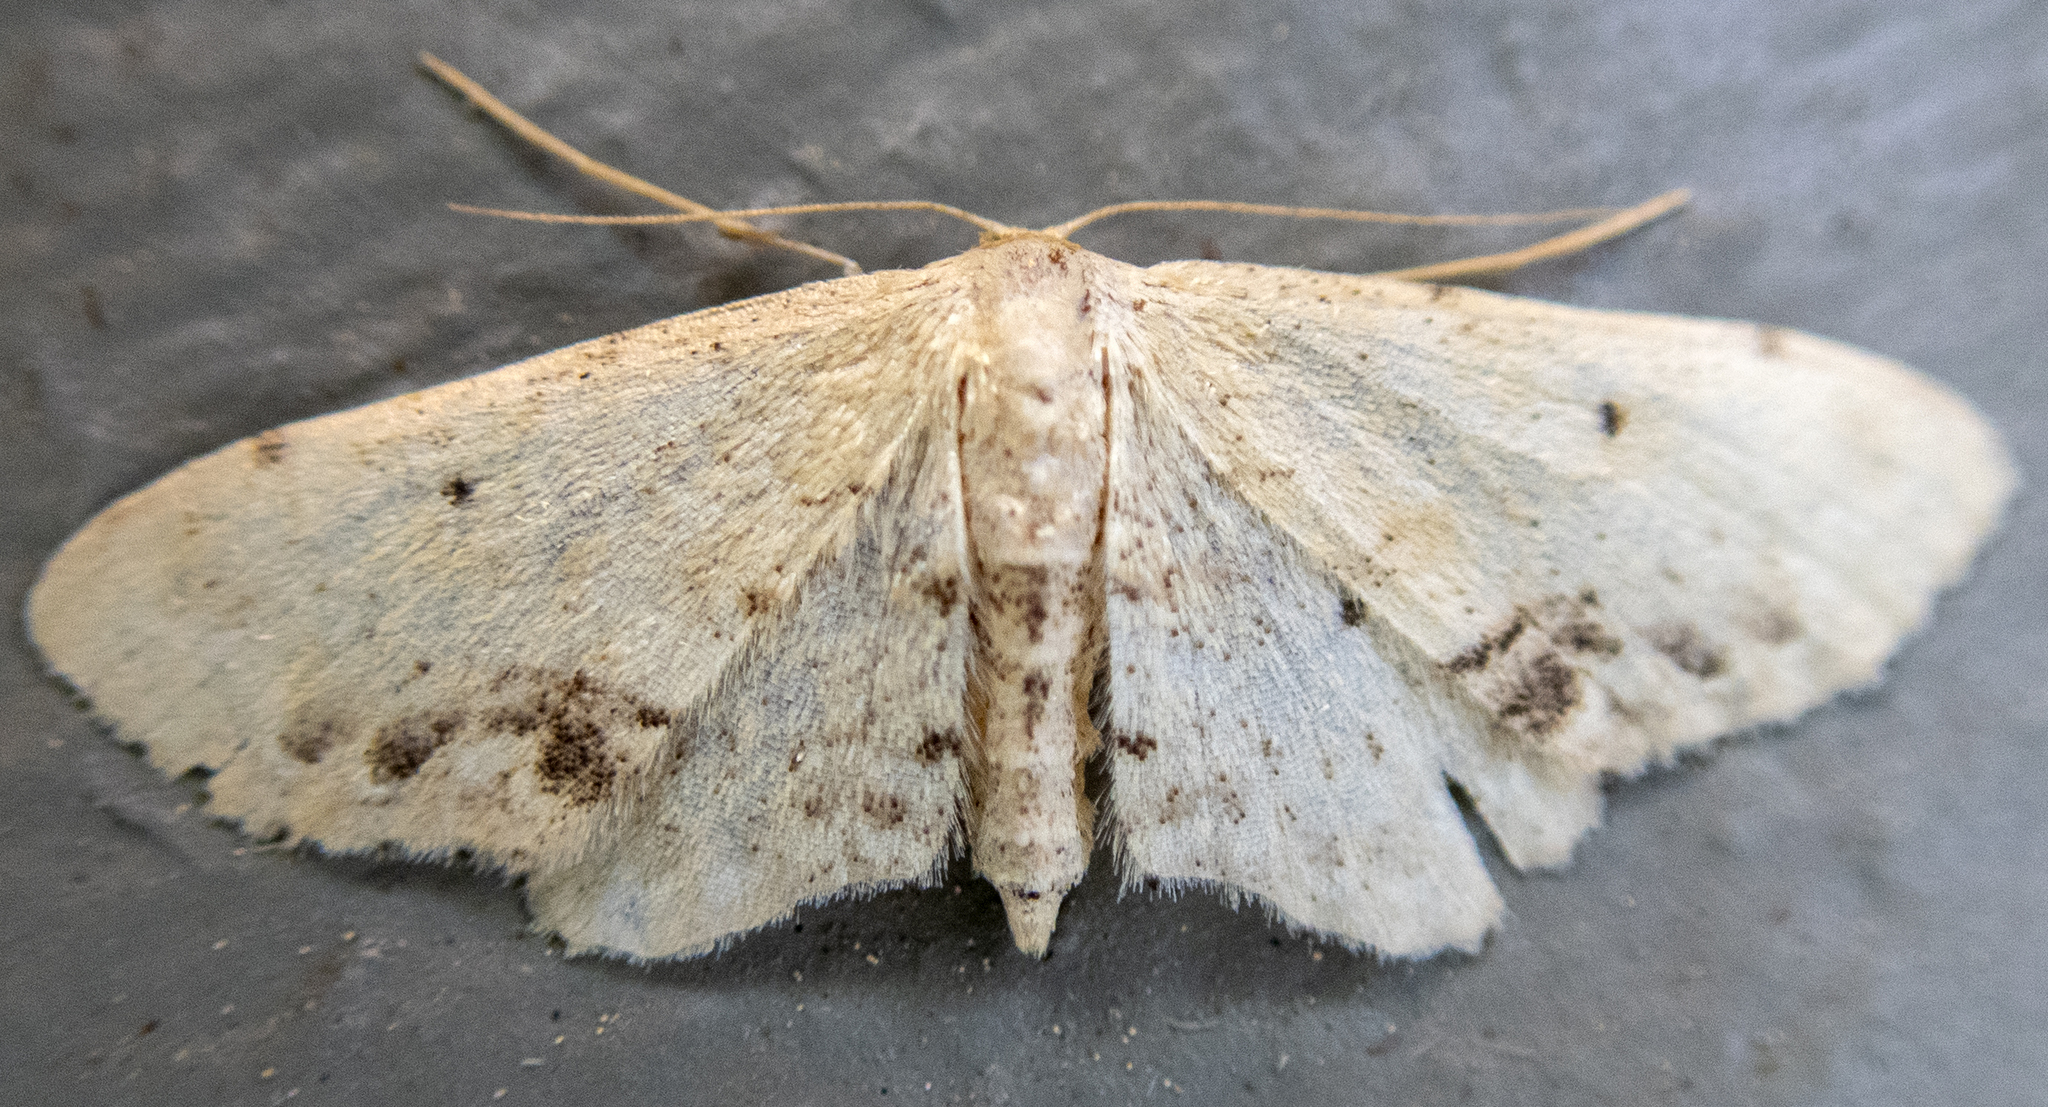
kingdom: Animalia
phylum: Arthropoda
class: Insecta
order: Lepidoptera
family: Geometridae
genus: Idaea
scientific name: Idaea dimidiata
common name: Single-dotted wave
